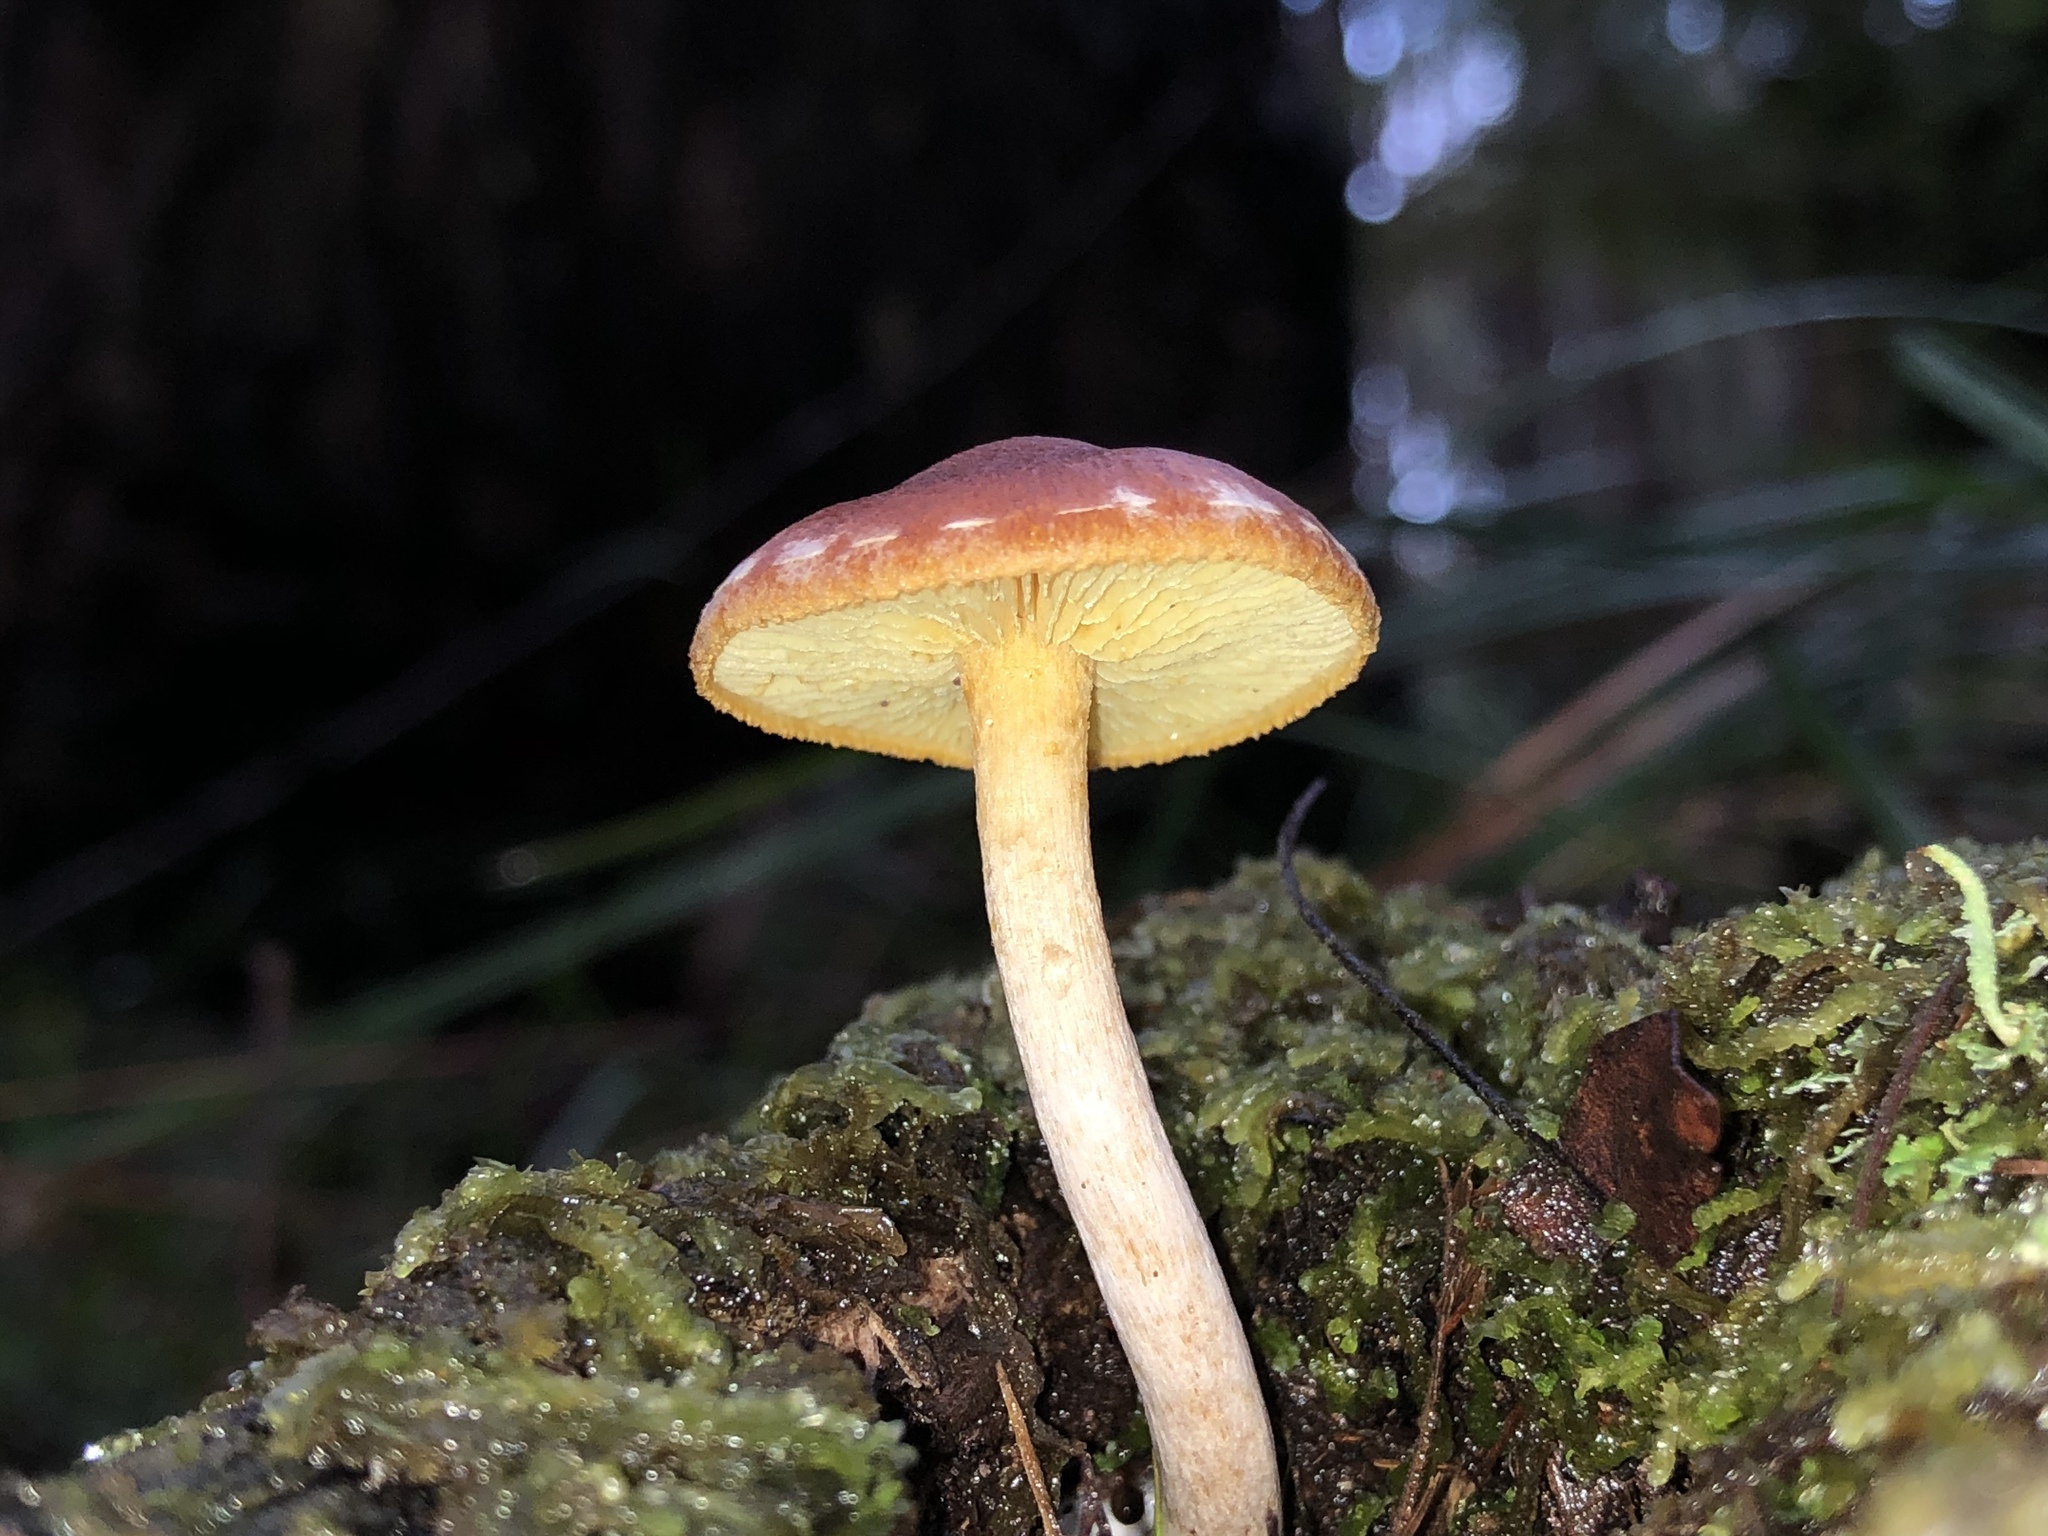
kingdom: Fungi
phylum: Basidiomycota
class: Agaricomycetes
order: Agaricales
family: Hymenogastraceae
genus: Gymnopilus
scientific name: Gymnopilus allantopus
